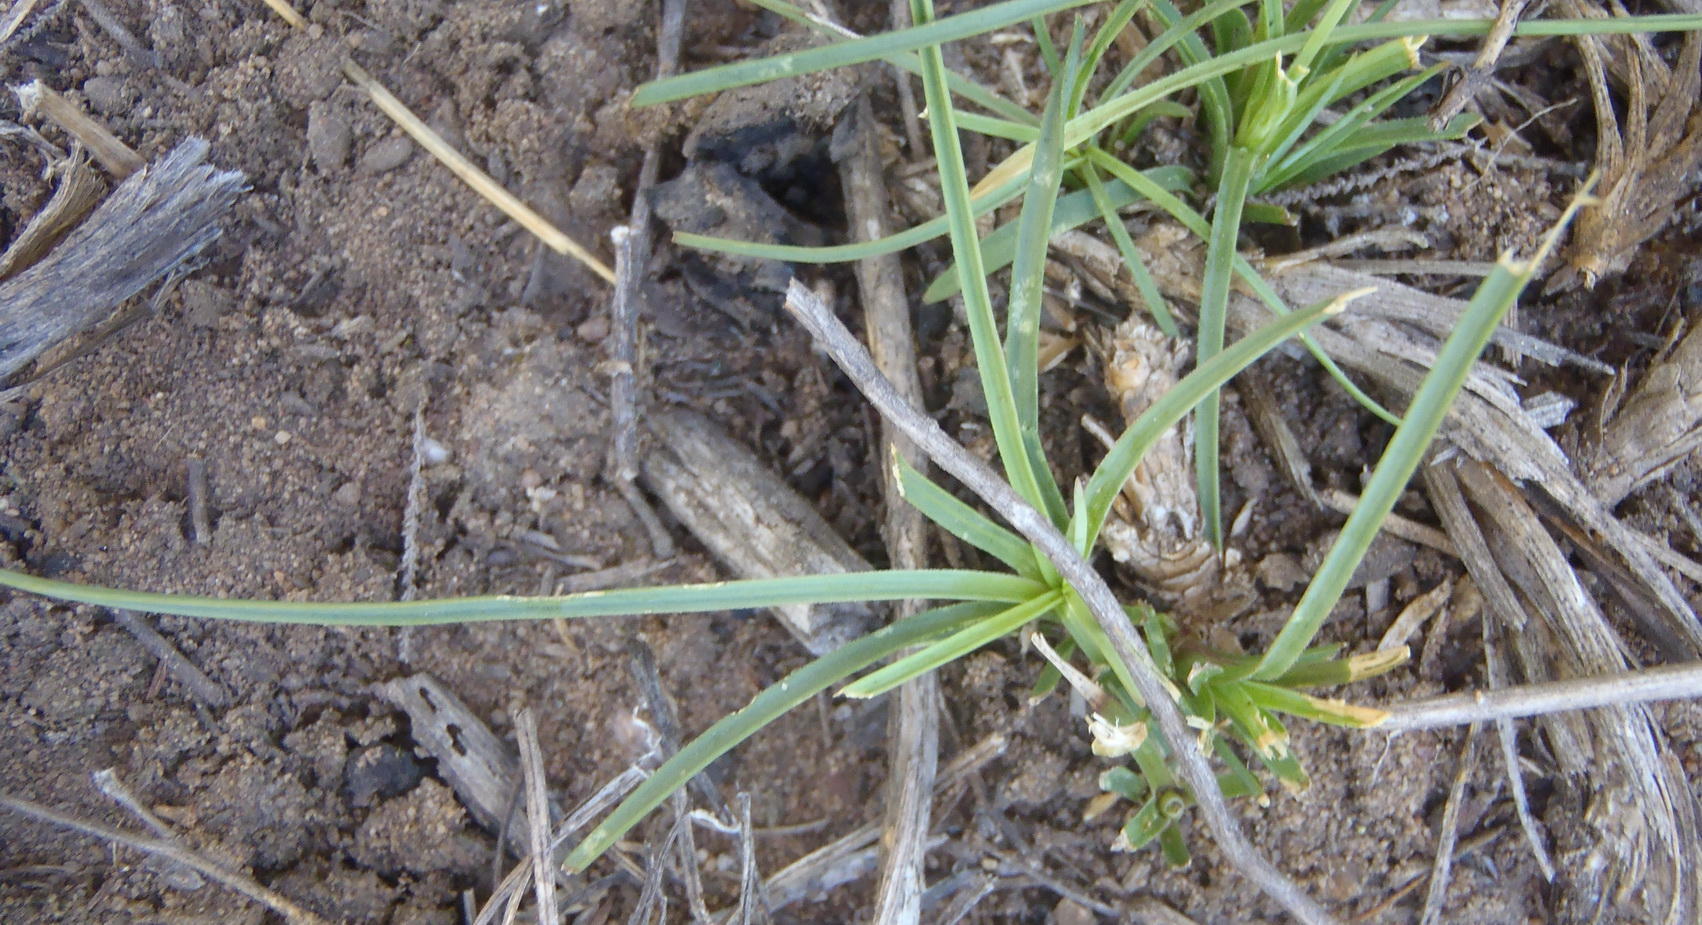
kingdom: Plantae
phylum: Tracheophyta
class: Magnoliopsida
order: Caryophyllales
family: Caryophyllaceae
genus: Dianthus
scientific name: Dianthus basuticus
